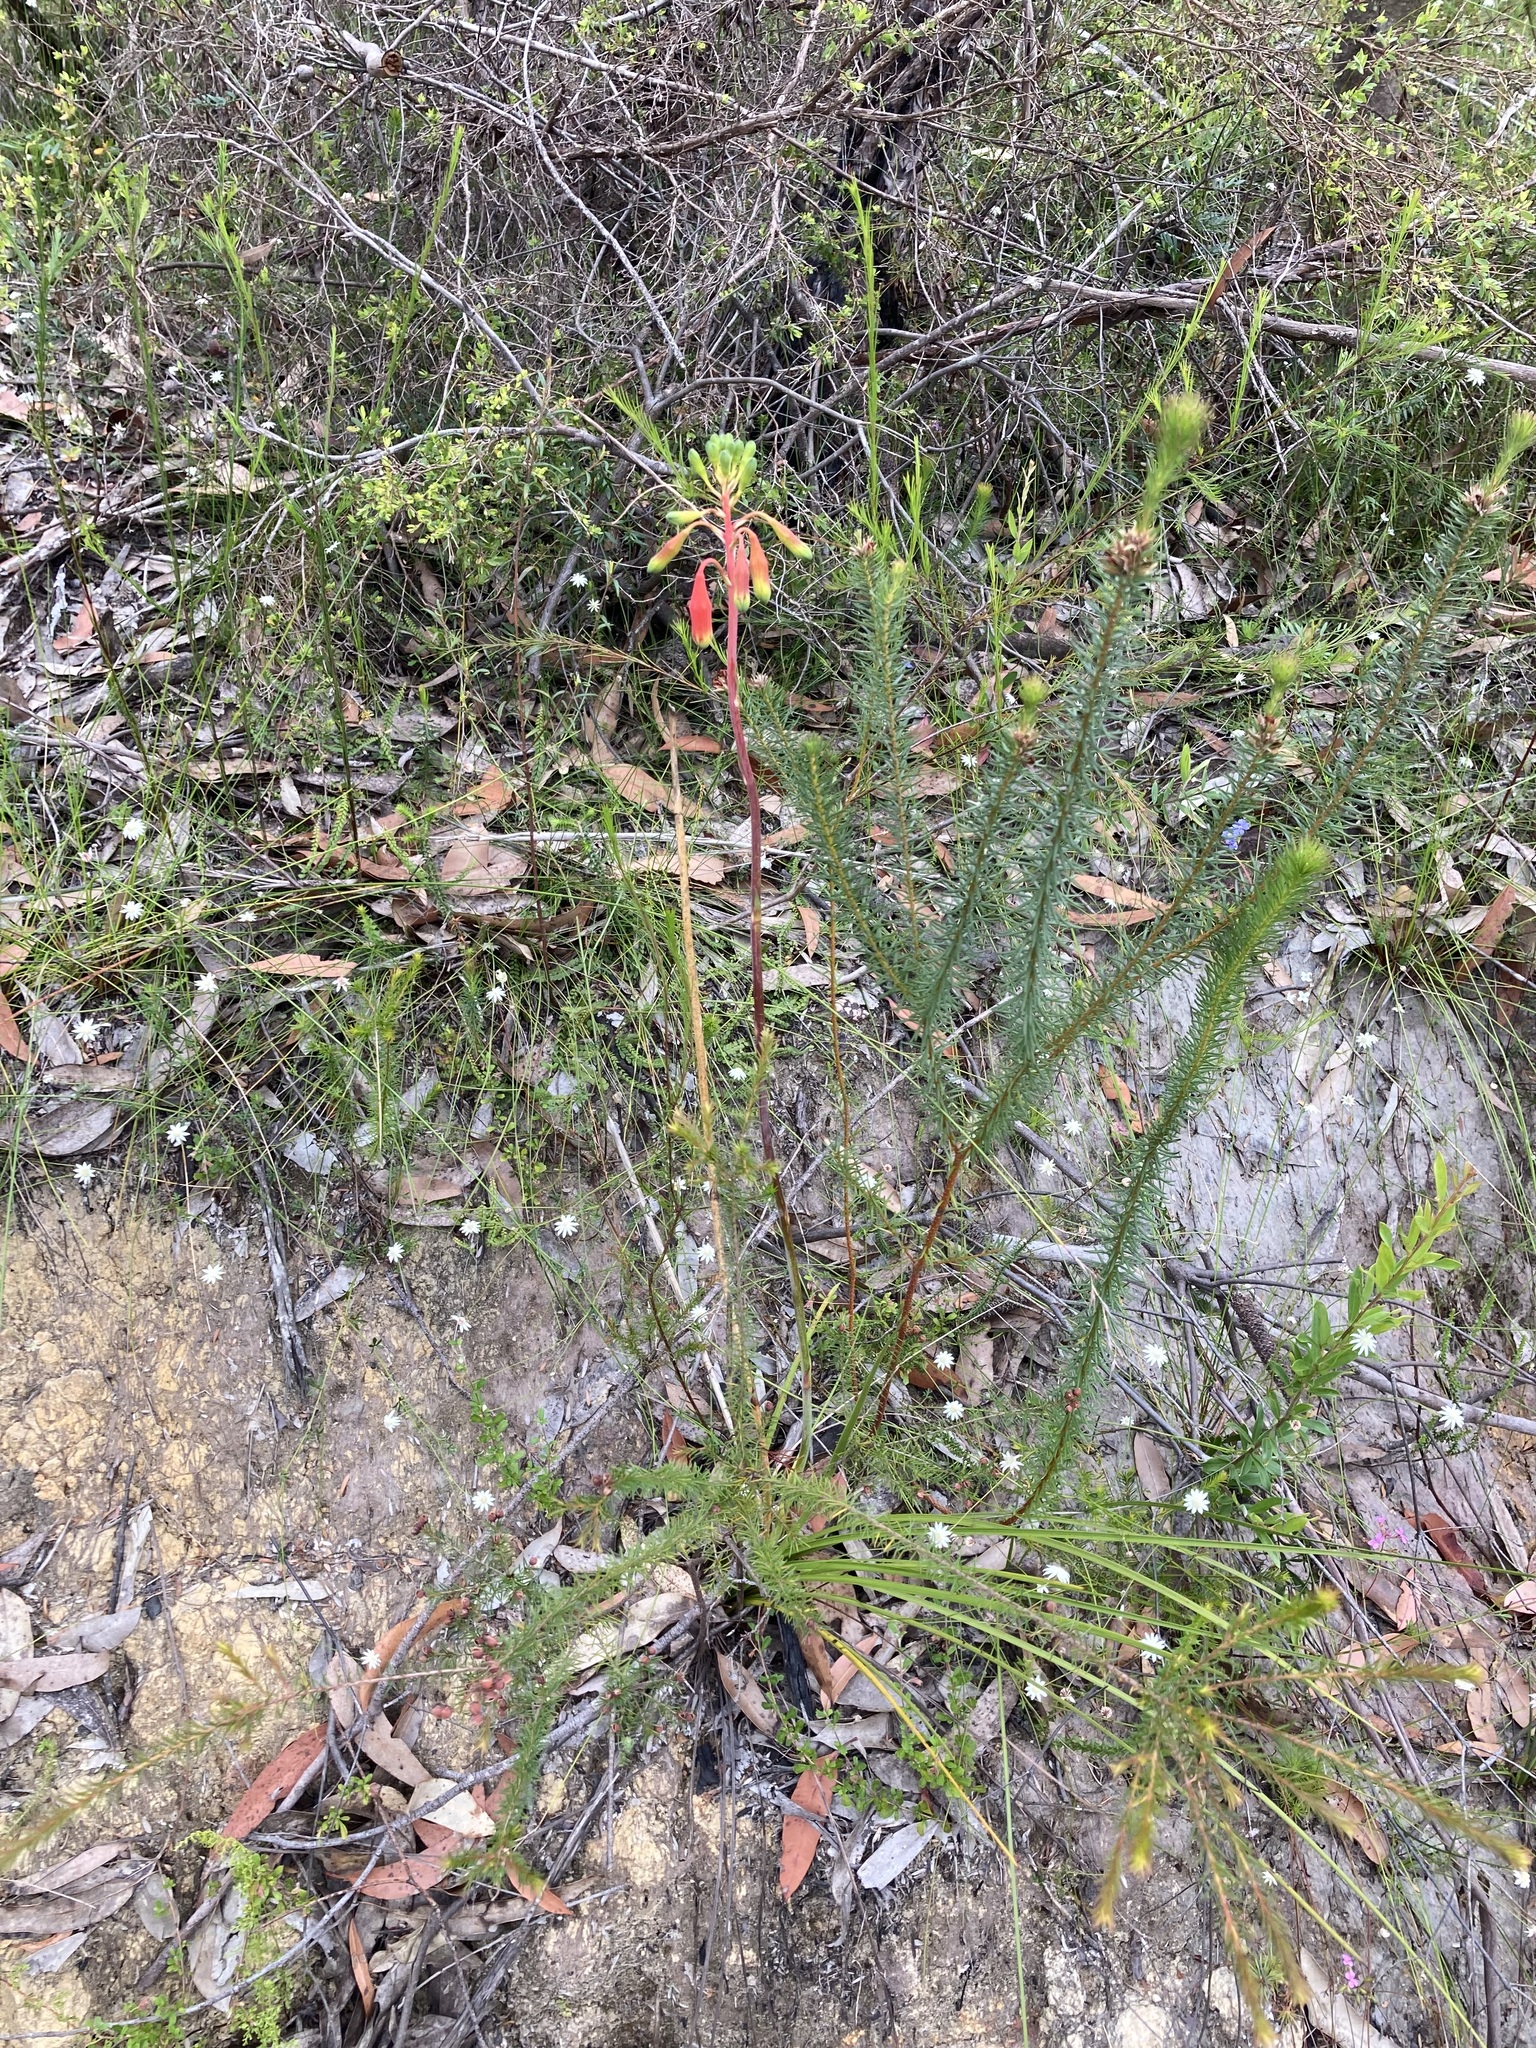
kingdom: Plantae
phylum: Tracheophyta
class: Liliopsida
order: Asparagales
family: Blandfordiaceae
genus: Blandfordia
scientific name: Blandfordia nobilis
